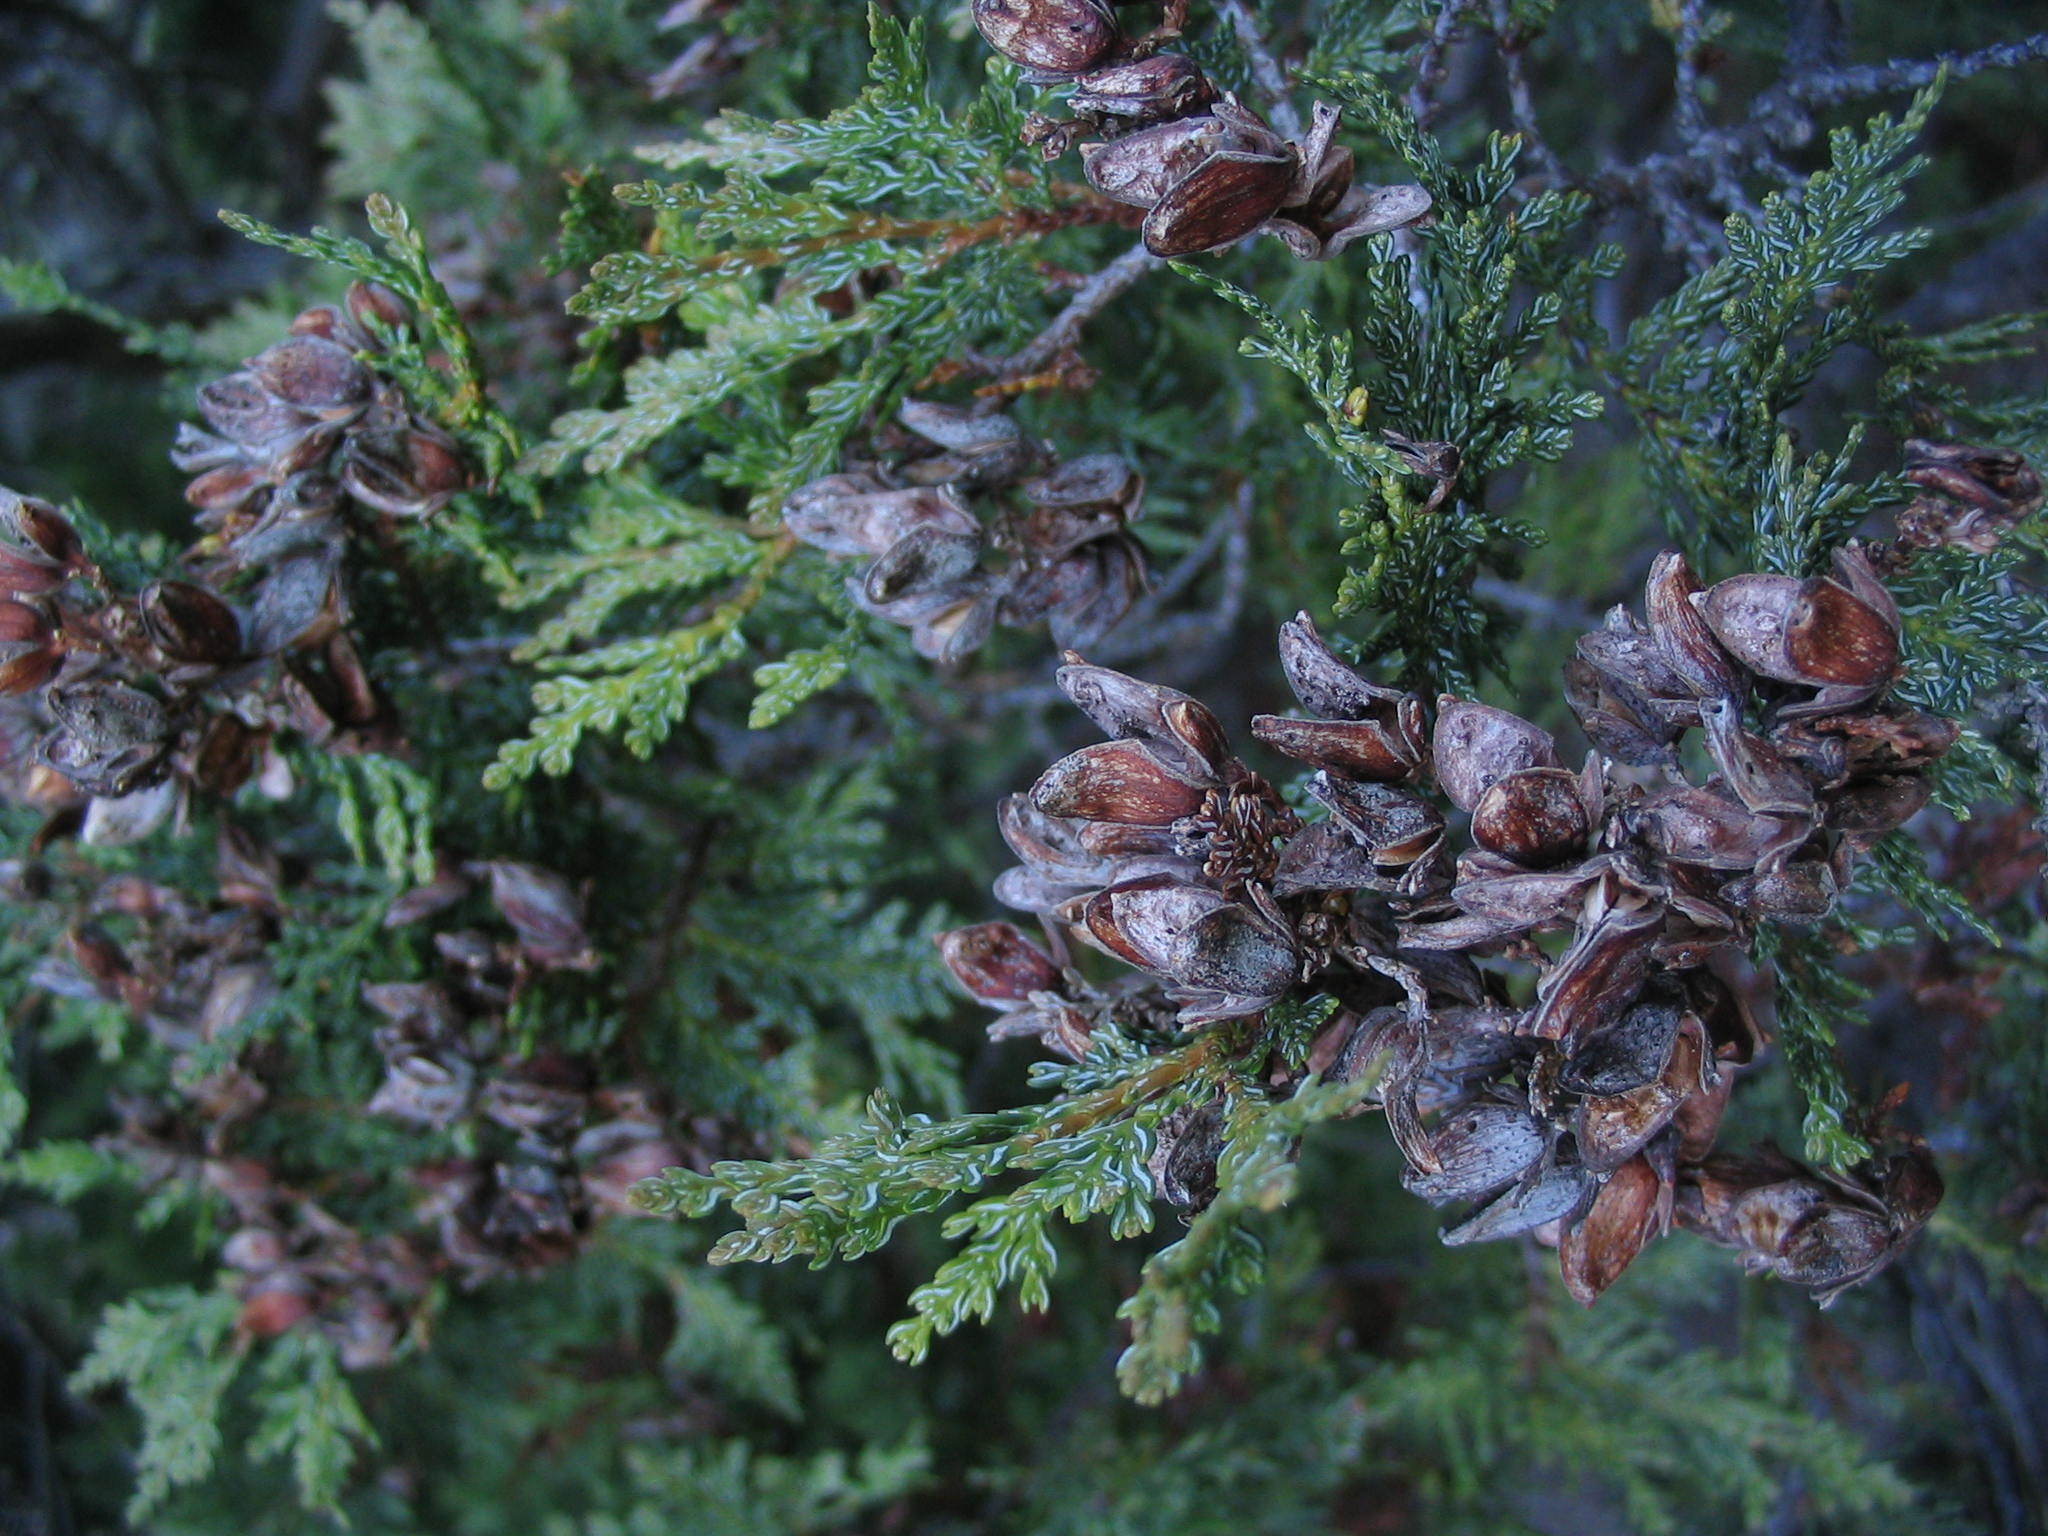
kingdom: Plantae
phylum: Tracheophyta
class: Pinopsida
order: Pinales
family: Cupressaceae
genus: Austrocedrus
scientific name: Austrocedrus chilensis
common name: Chilean incense-cedar
